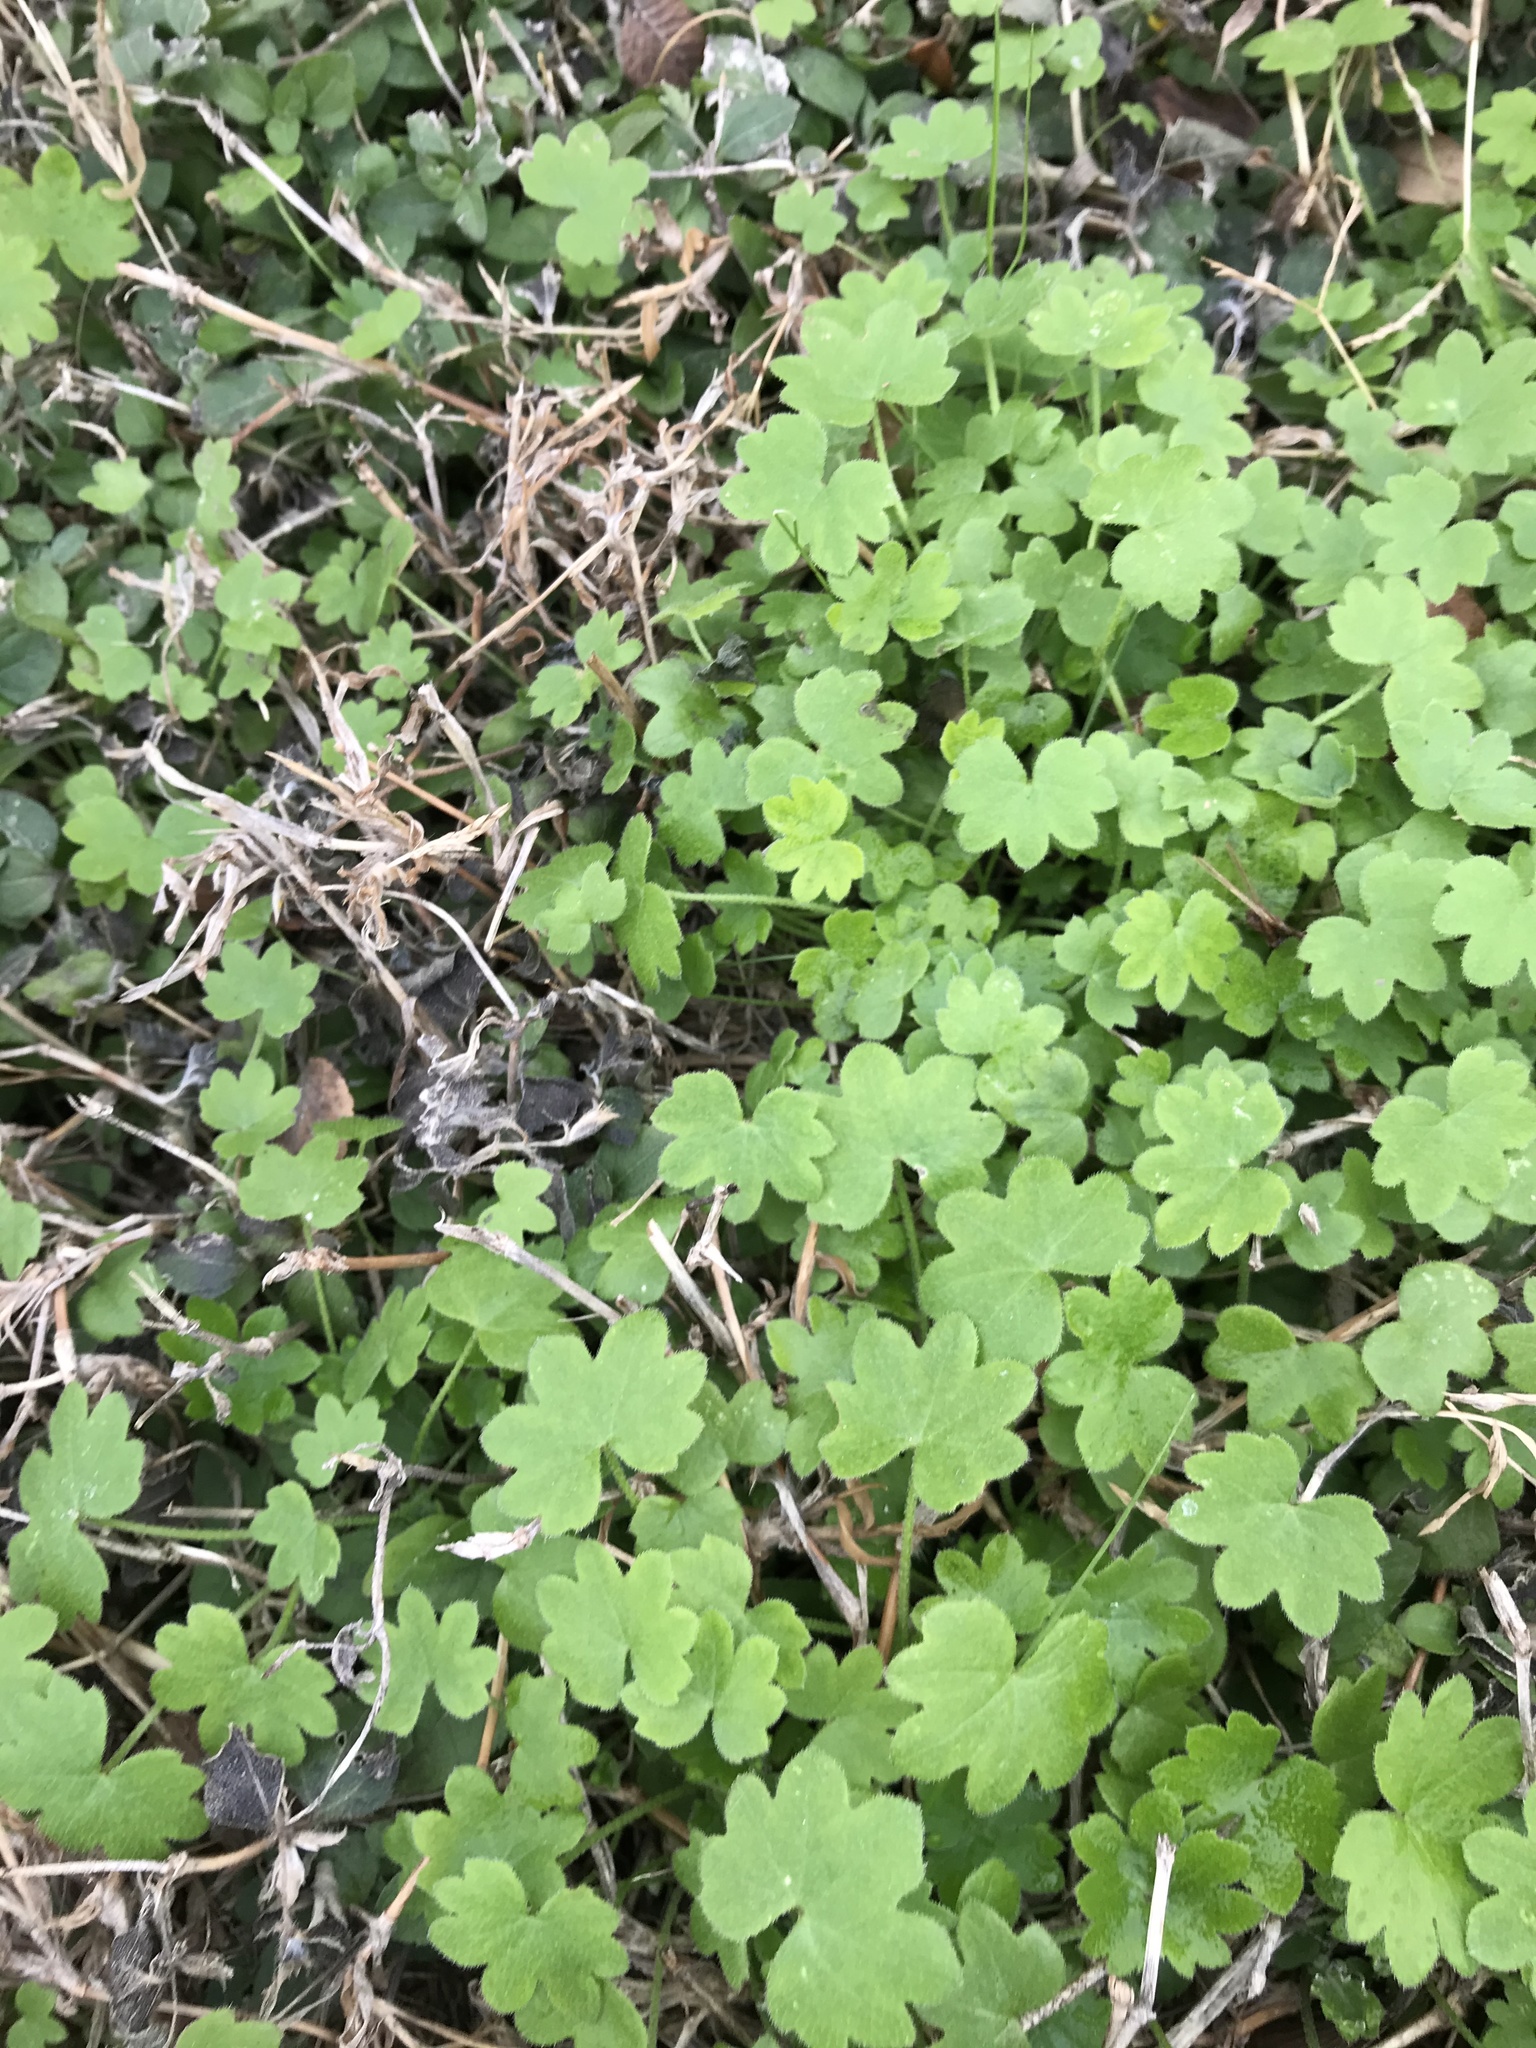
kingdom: Plantae
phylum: Tracheophyta
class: Magnoliopsida
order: Apiales
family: Apiaceae
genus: Bowlesia
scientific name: Bowlesia incana
